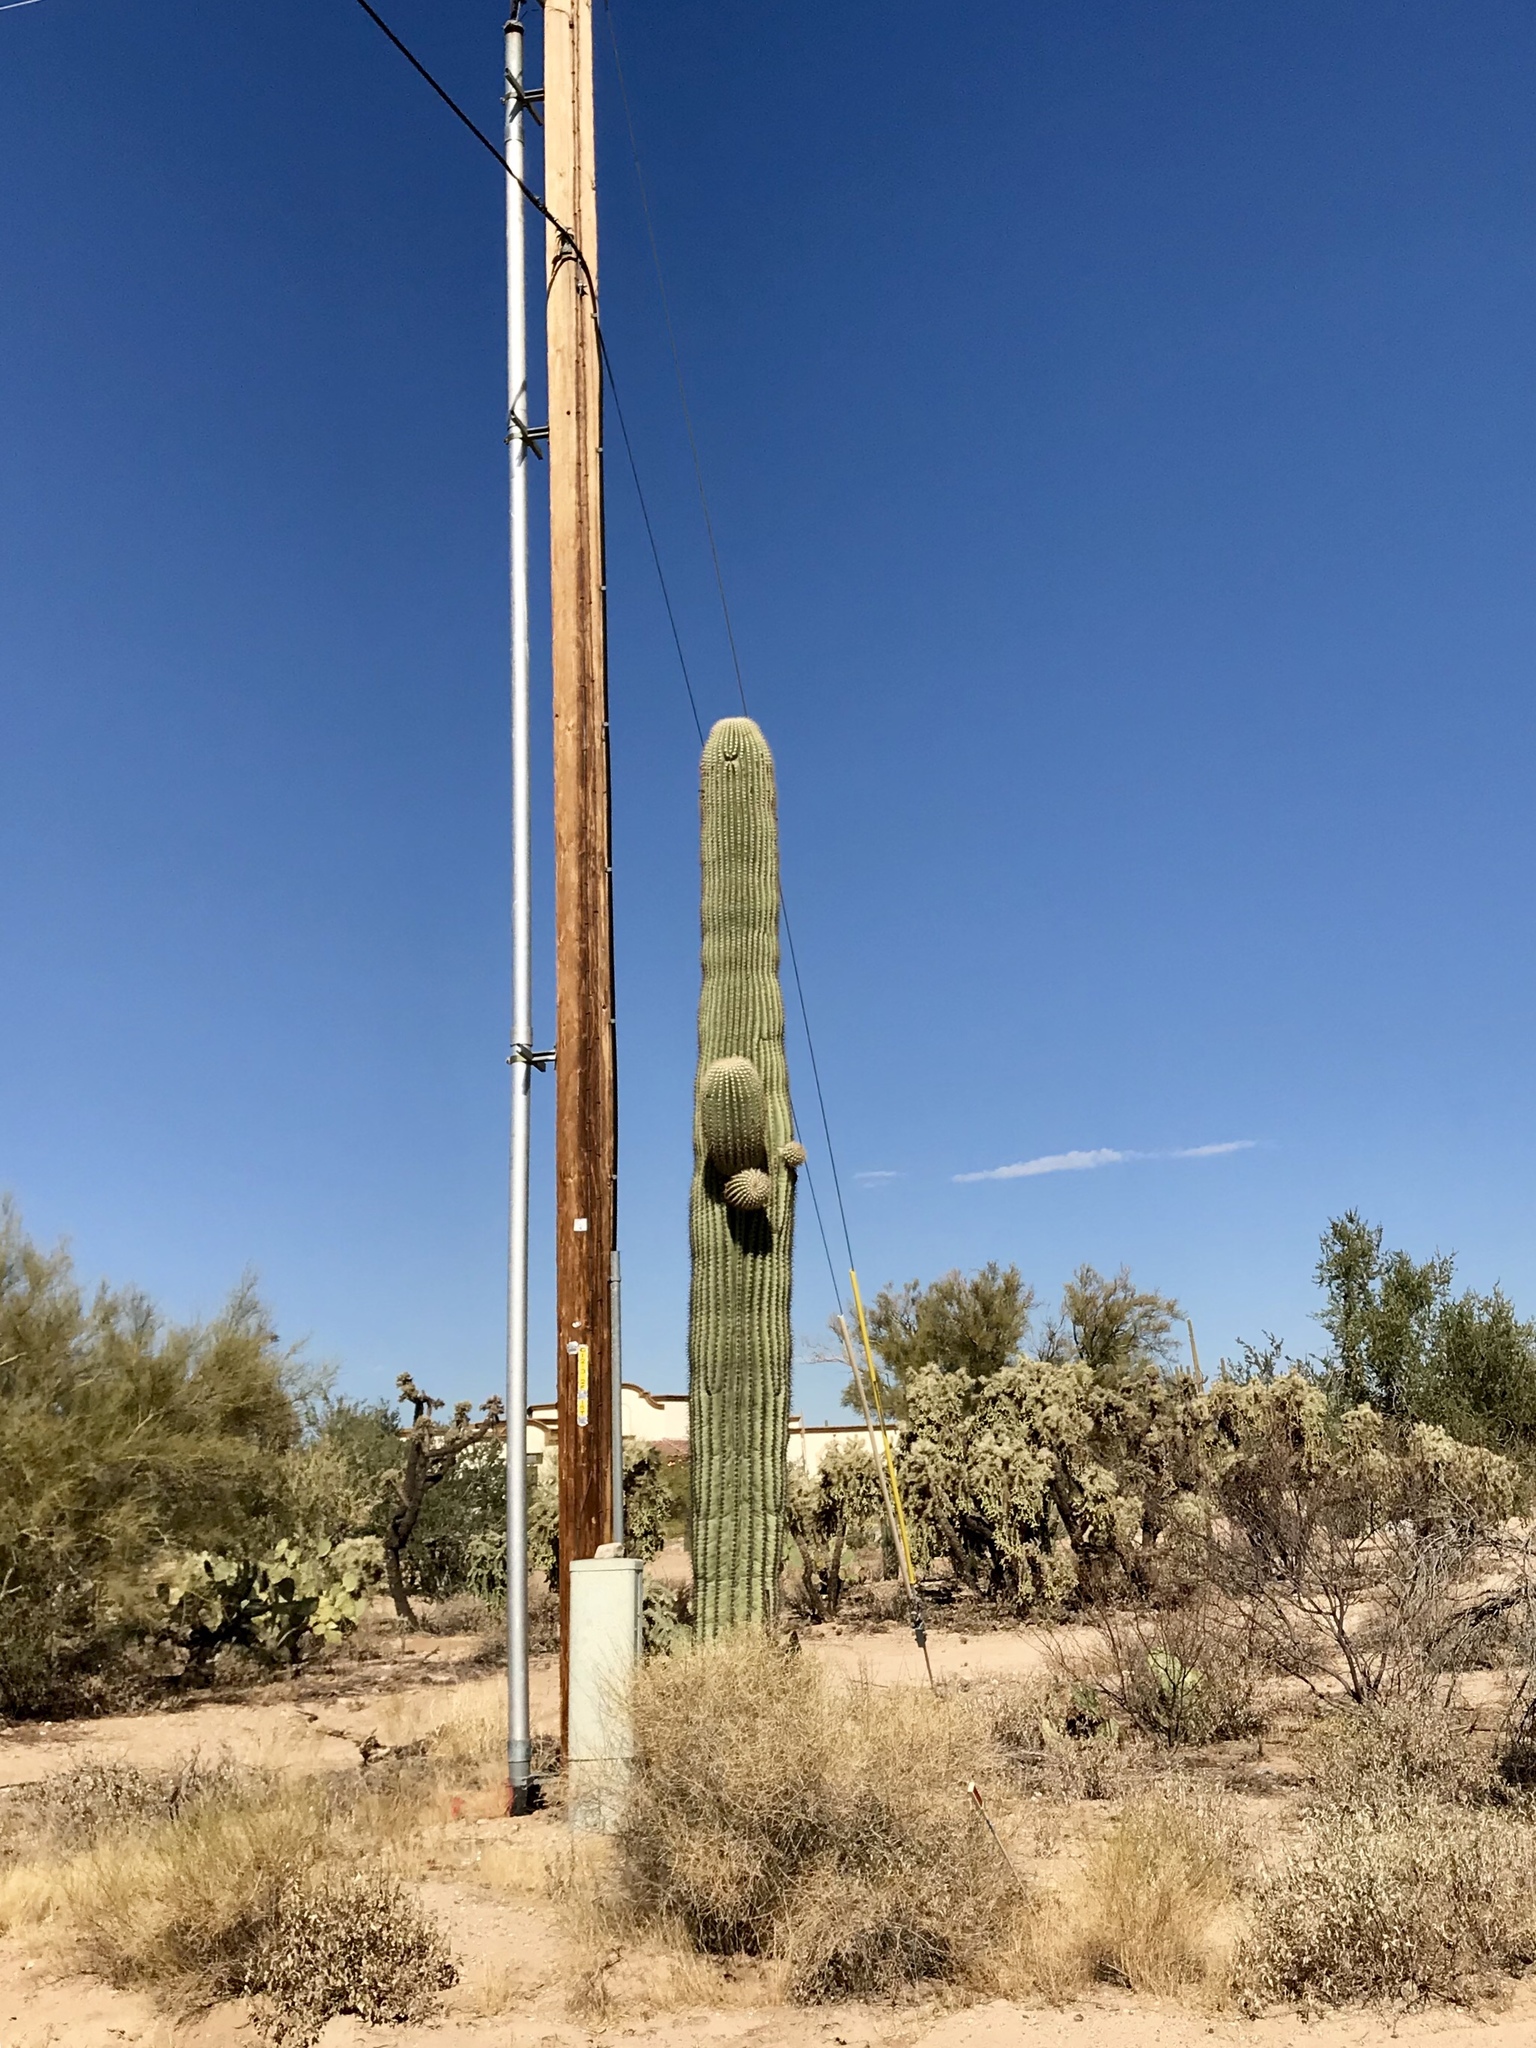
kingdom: Plantae
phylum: Tracheophyta
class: Magnoliopsida
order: Caryophyllales
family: Cactaceae
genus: Carnegiea
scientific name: Carnegiea gigantea
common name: Saguaro
